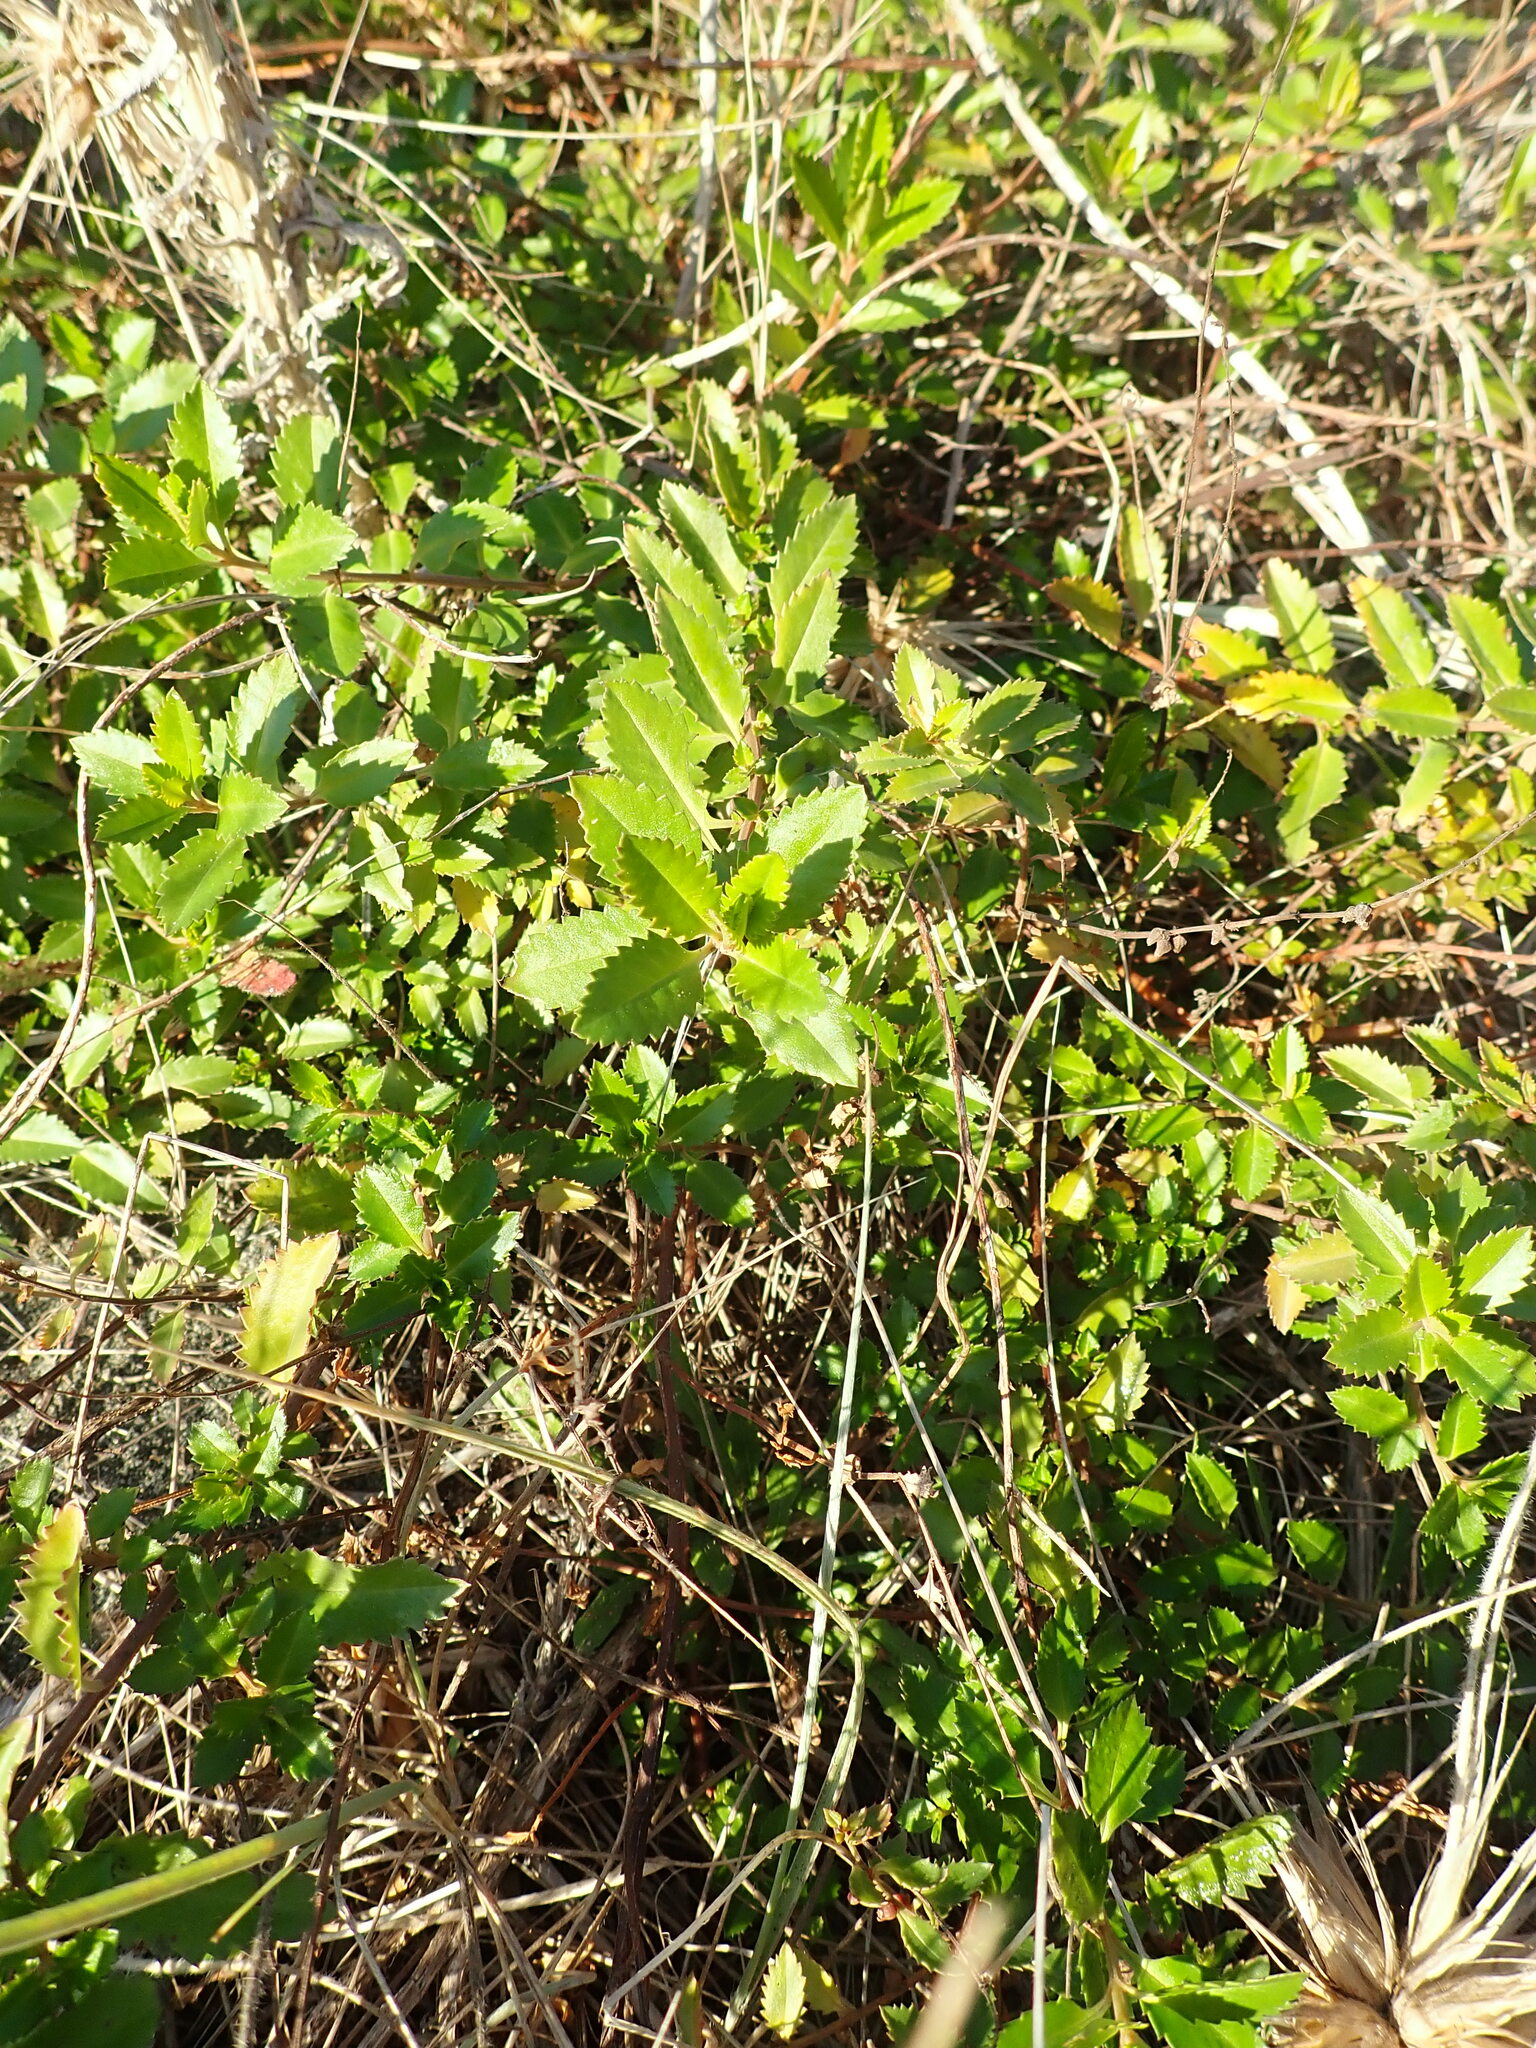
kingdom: Plantae
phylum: Tracheophyta
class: Magnoliopsida
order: Saxifragales
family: Haloragaceae
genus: Haloragis
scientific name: Haloragis erecta
